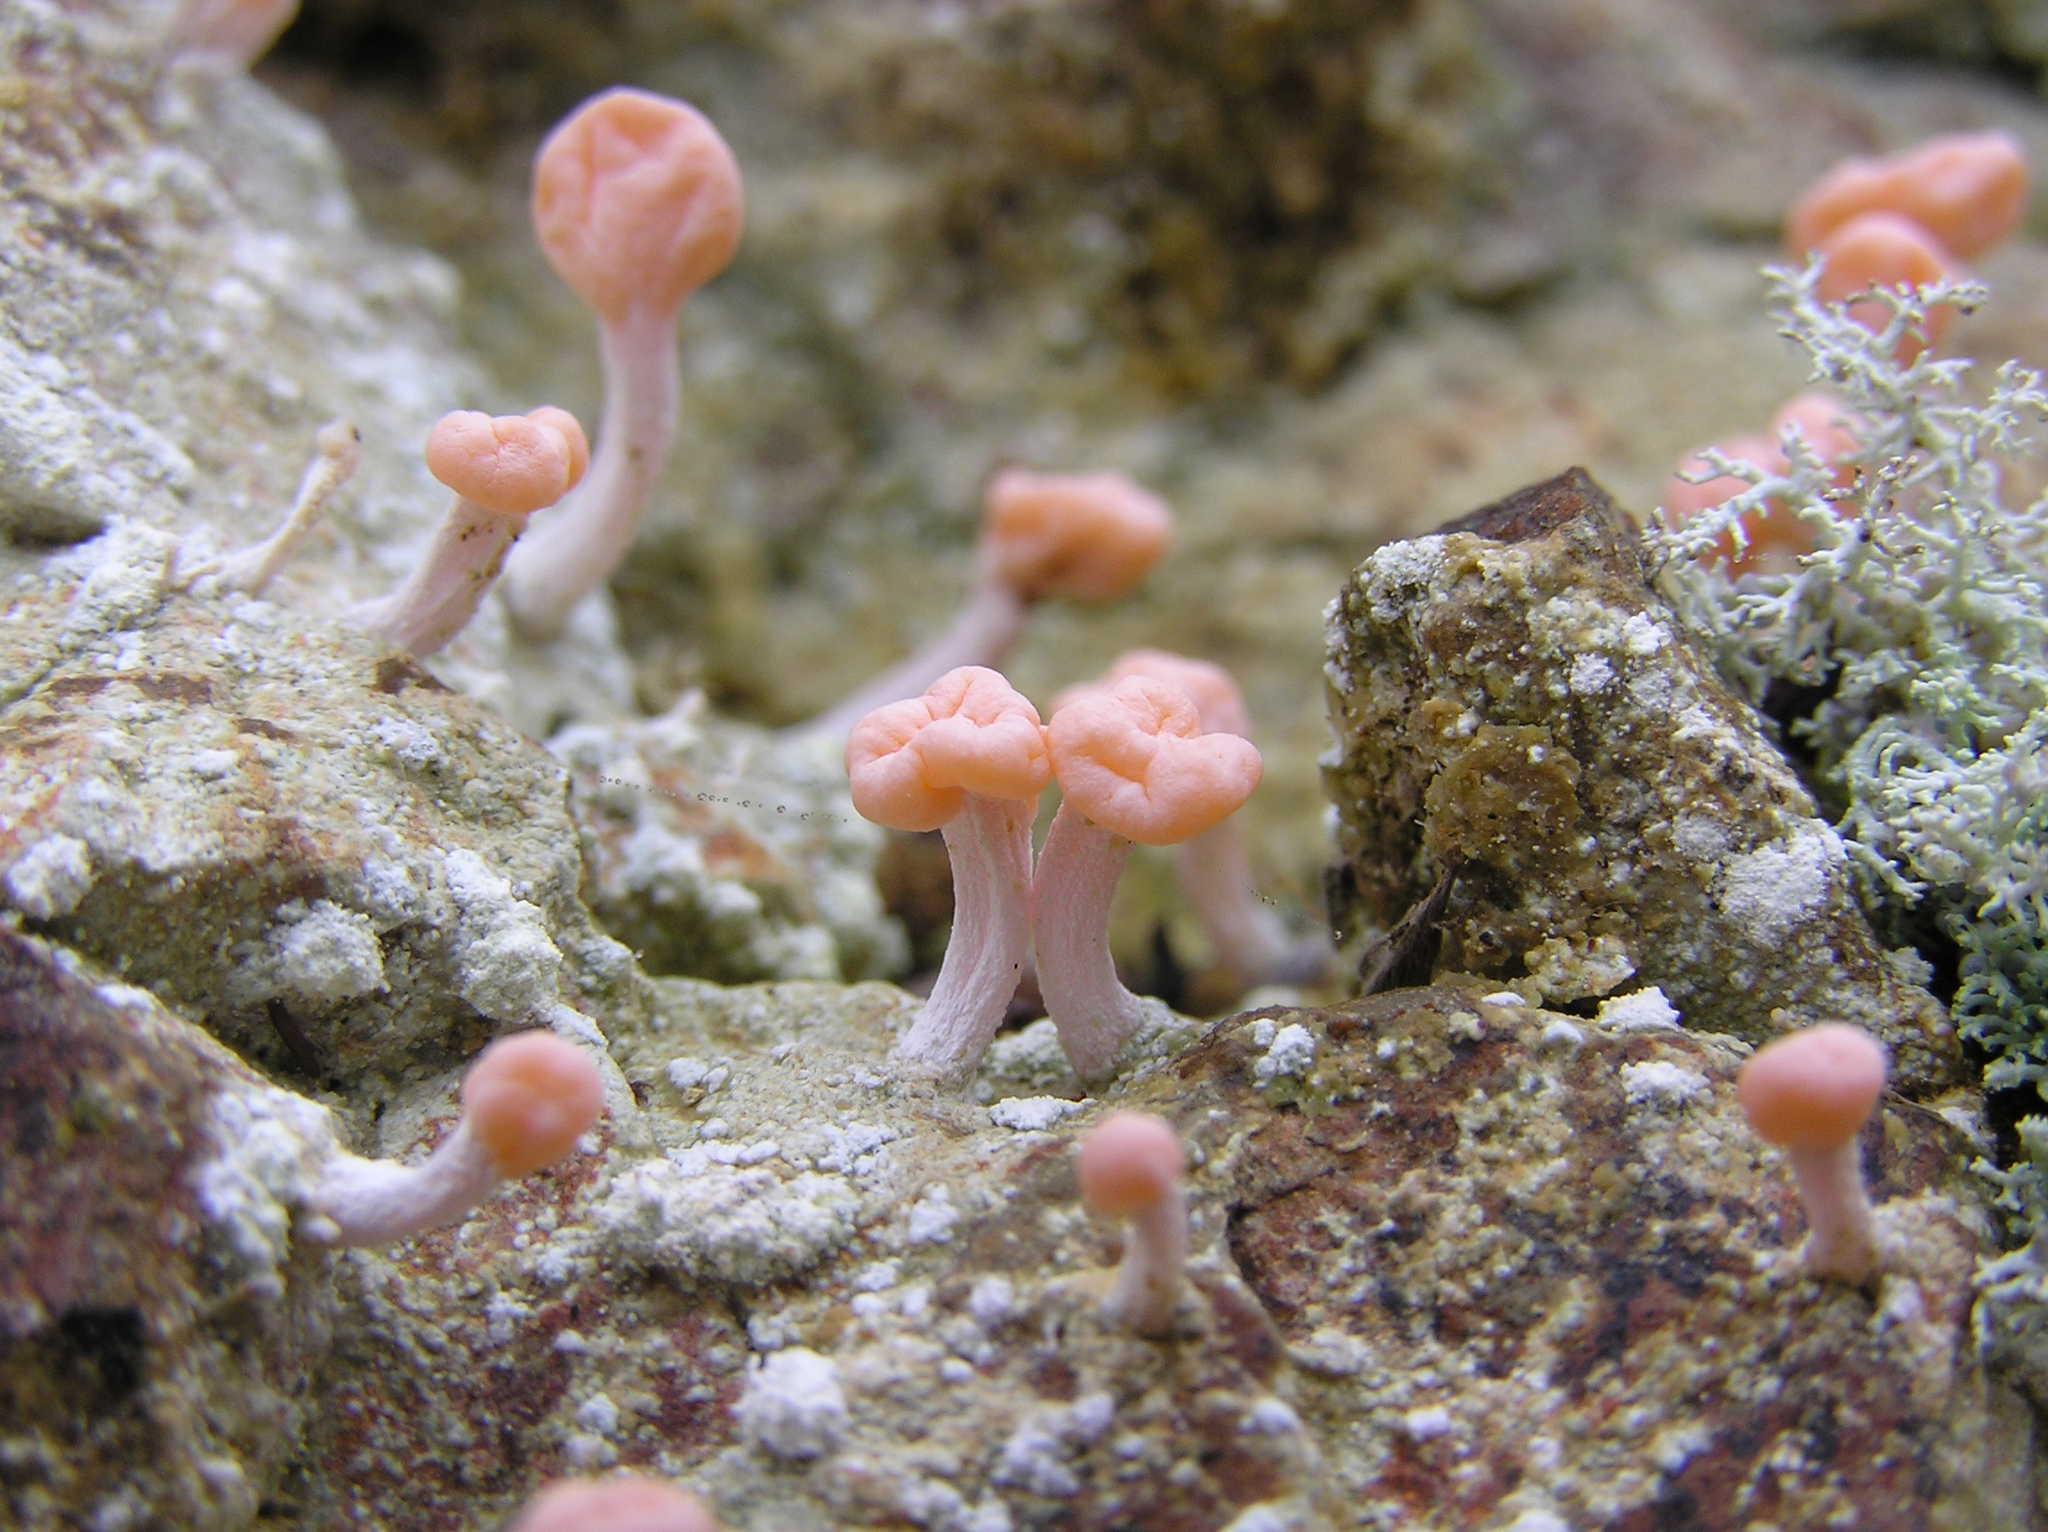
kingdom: Fungi
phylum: Ascomycota
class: Lecanoromycetes
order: Pertusariales
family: Icmadophilaceae
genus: Dibaeis
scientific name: Dibaeis arcuata
